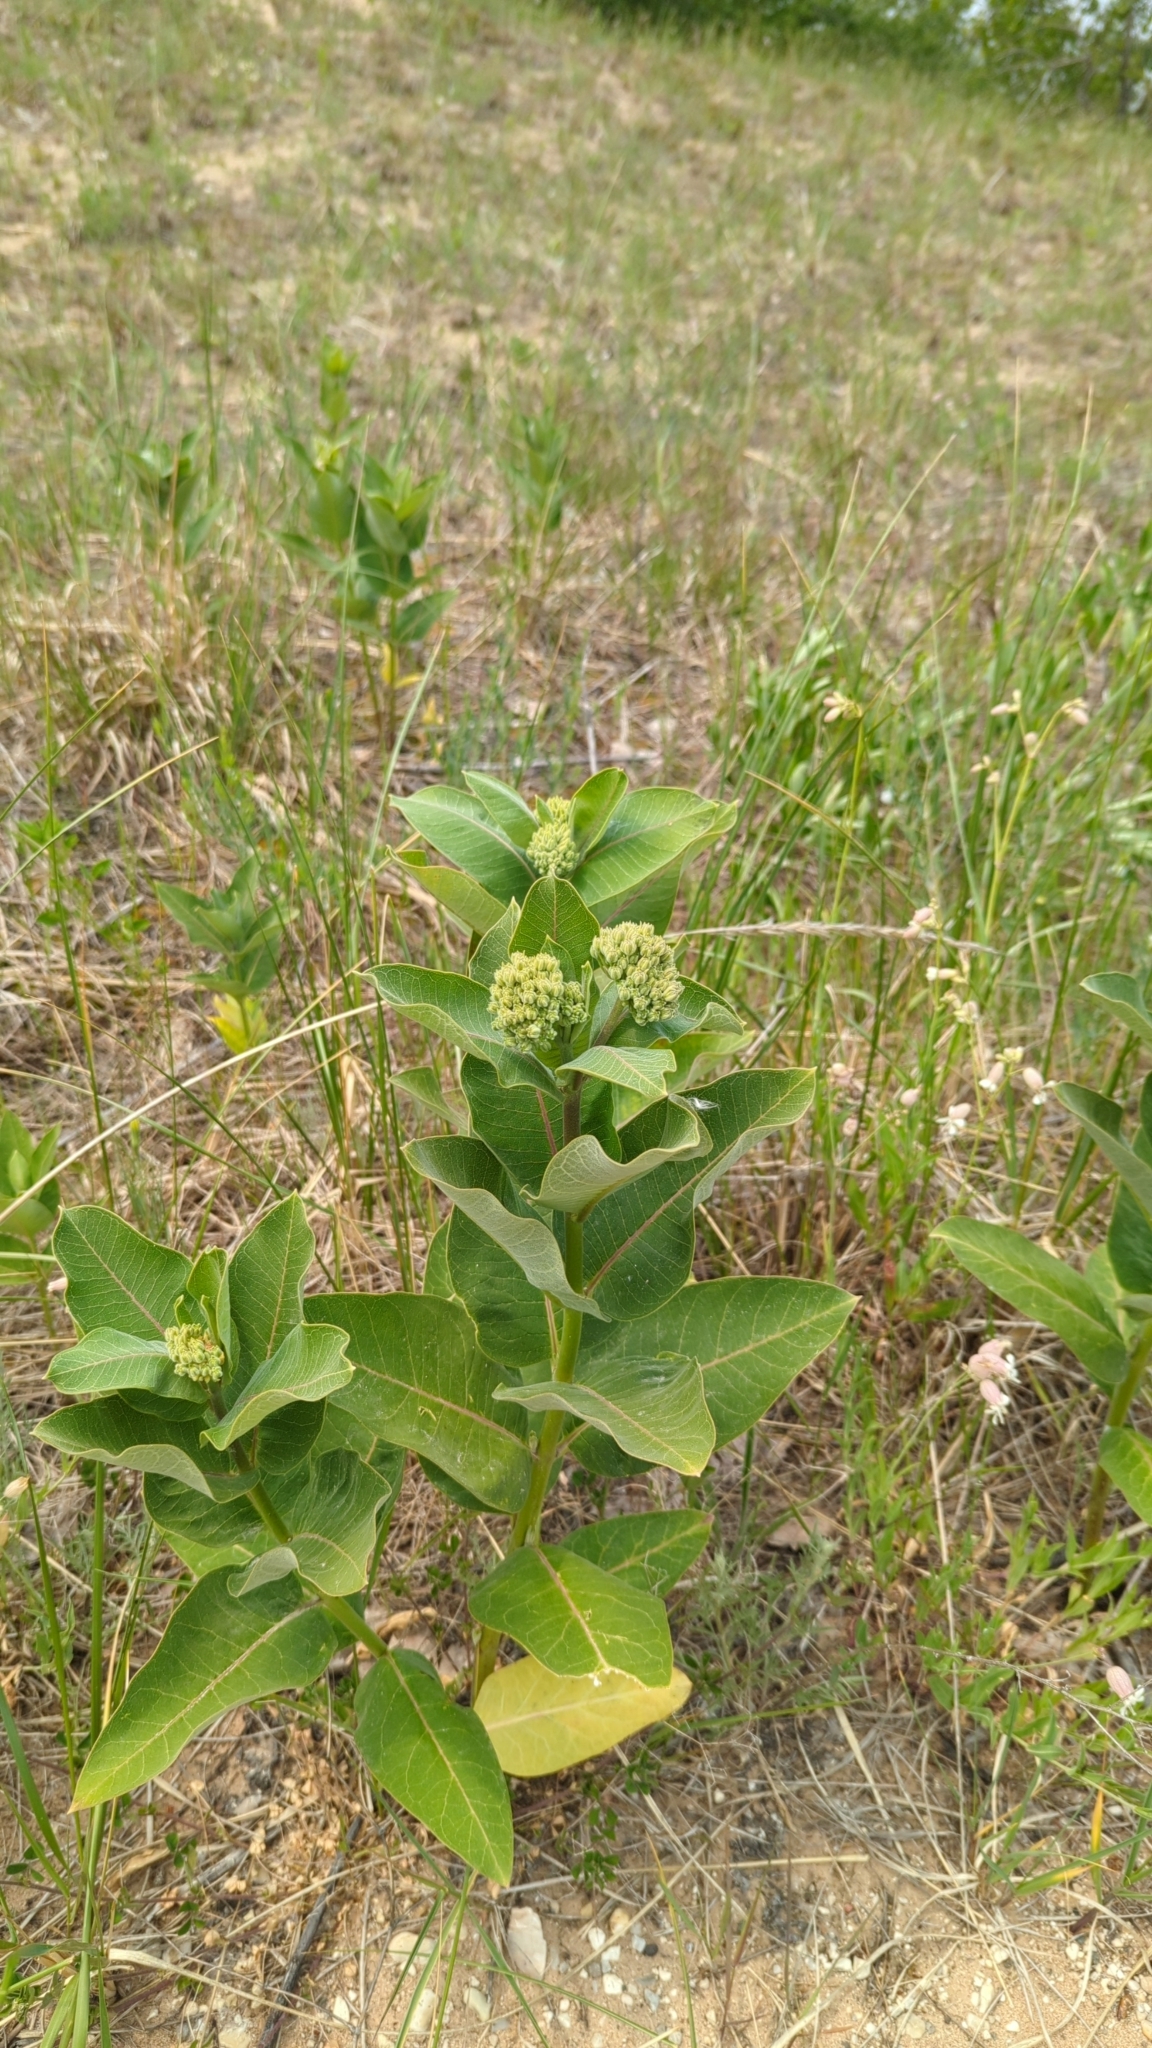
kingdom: Plantae
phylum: Tracheophyta
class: Magnoliopsida
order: Gentianales
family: Apocynaceae
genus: Asclepias
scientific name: Asclepias syriaca
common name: Common milkweed
